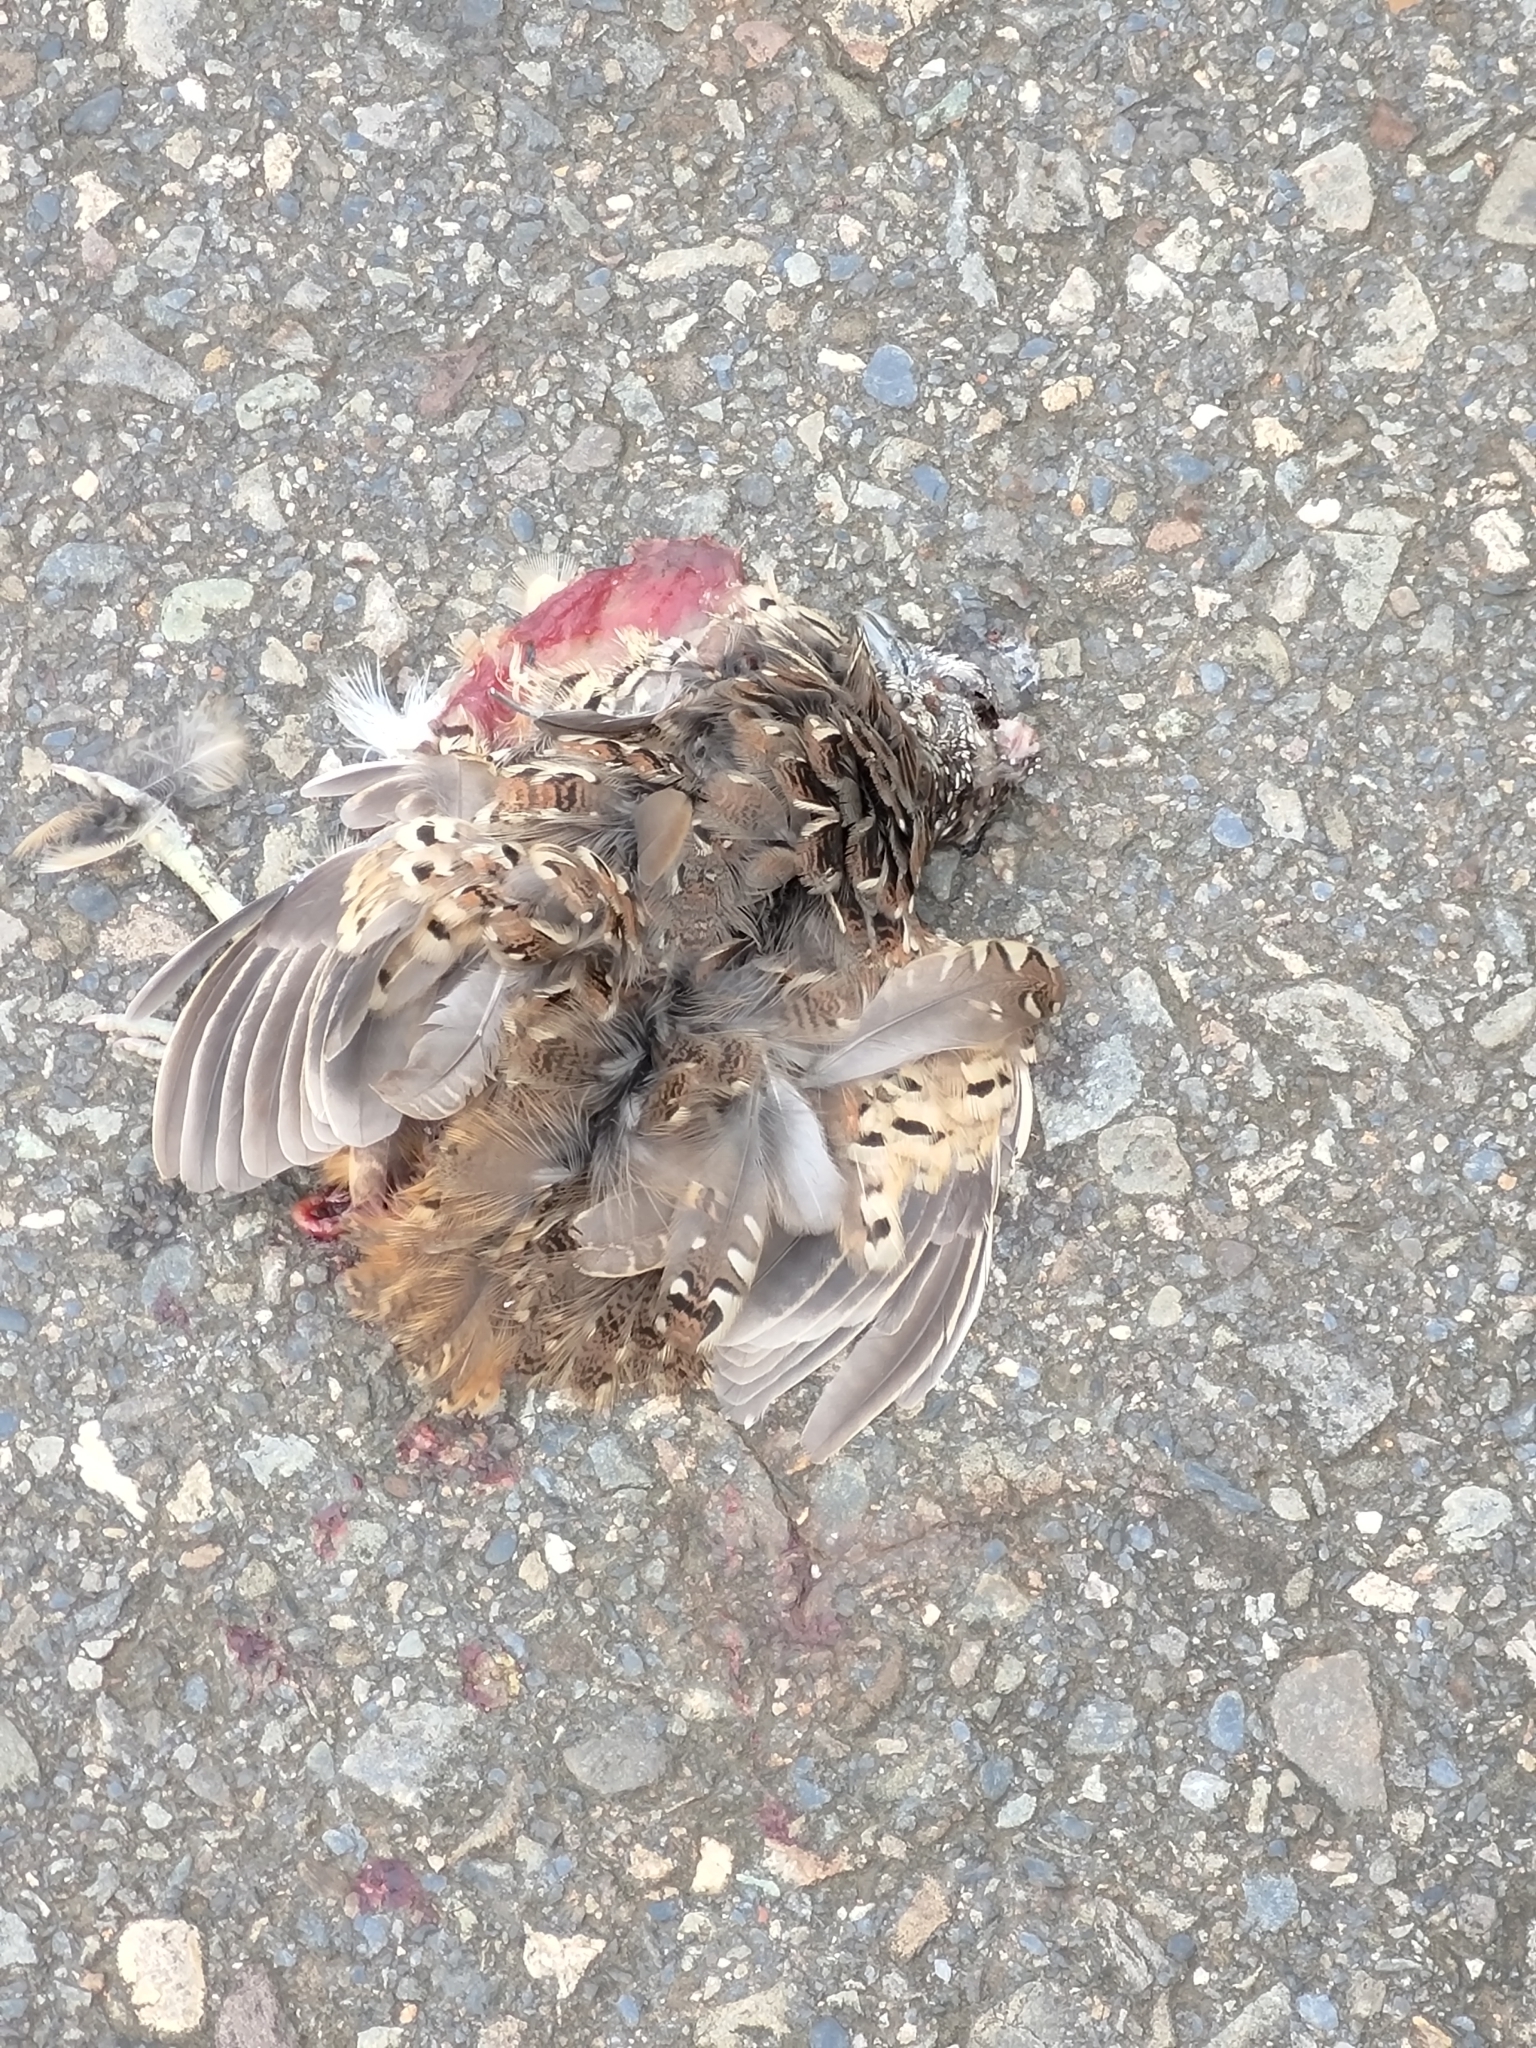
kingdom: Animalia
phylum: Chordata
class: Aves
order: Charadriiformes
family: Turnicidae
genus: Turnix
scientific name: Turnix suscitator
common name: Barred buttonquail
